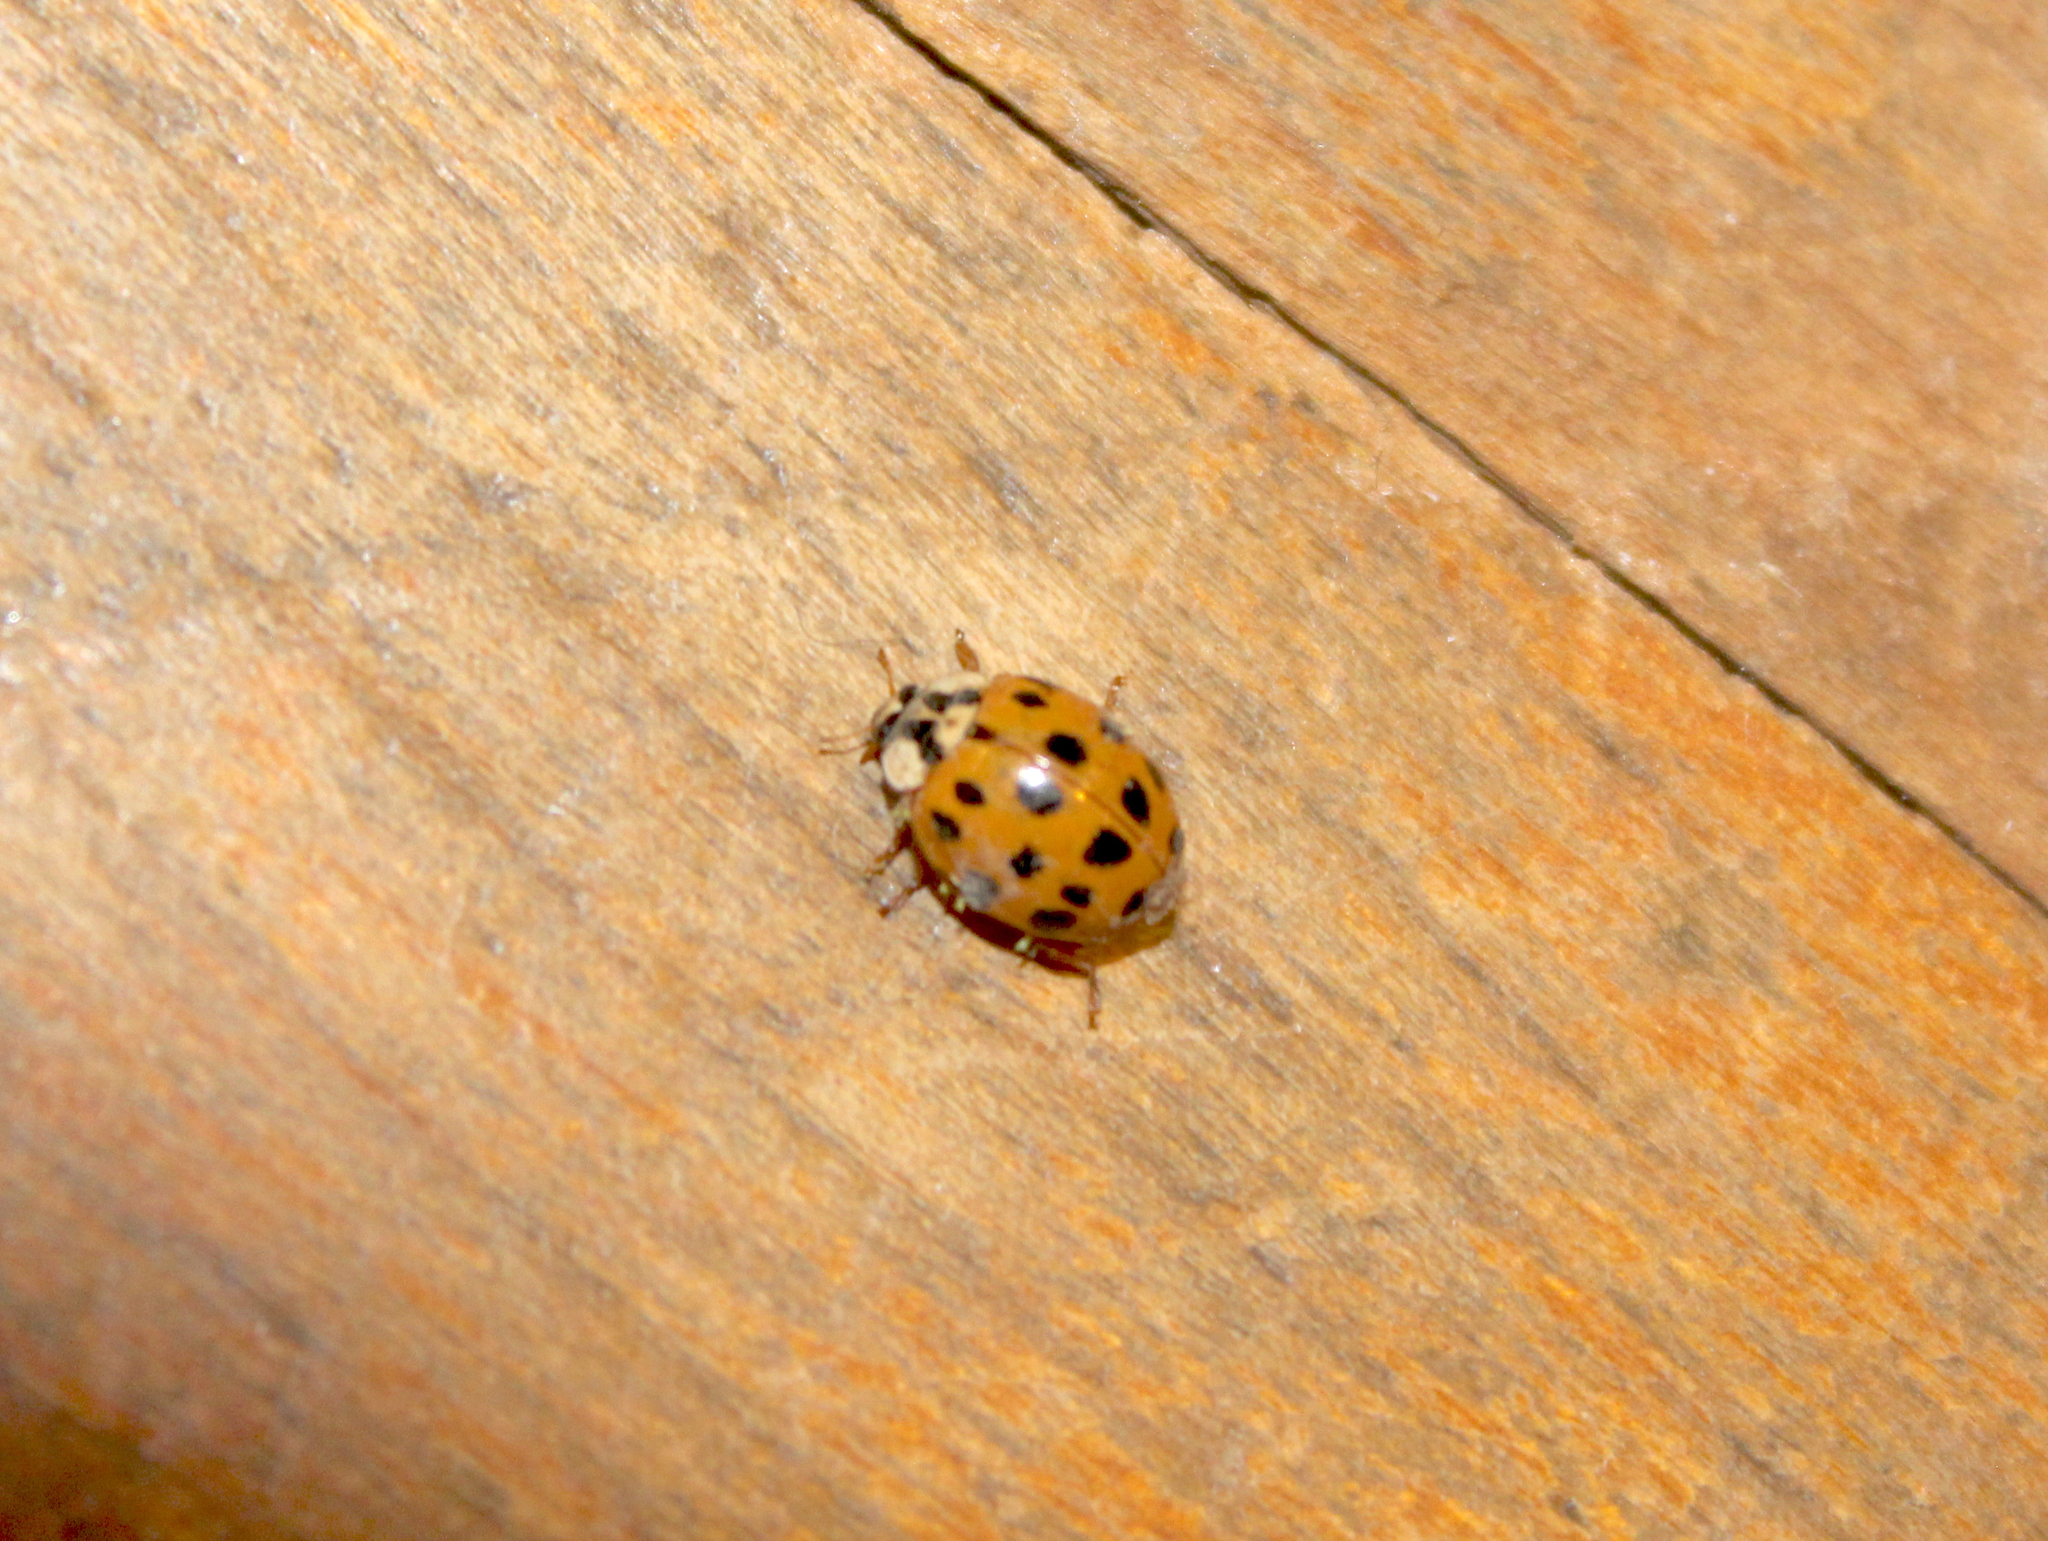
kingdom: Animalia
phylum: Arthropoda
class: Insecta
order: Coleoptera
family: Coccinellidae
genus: Harmonia
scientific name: Harmonia axyridis
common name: Harlequin ladybird
